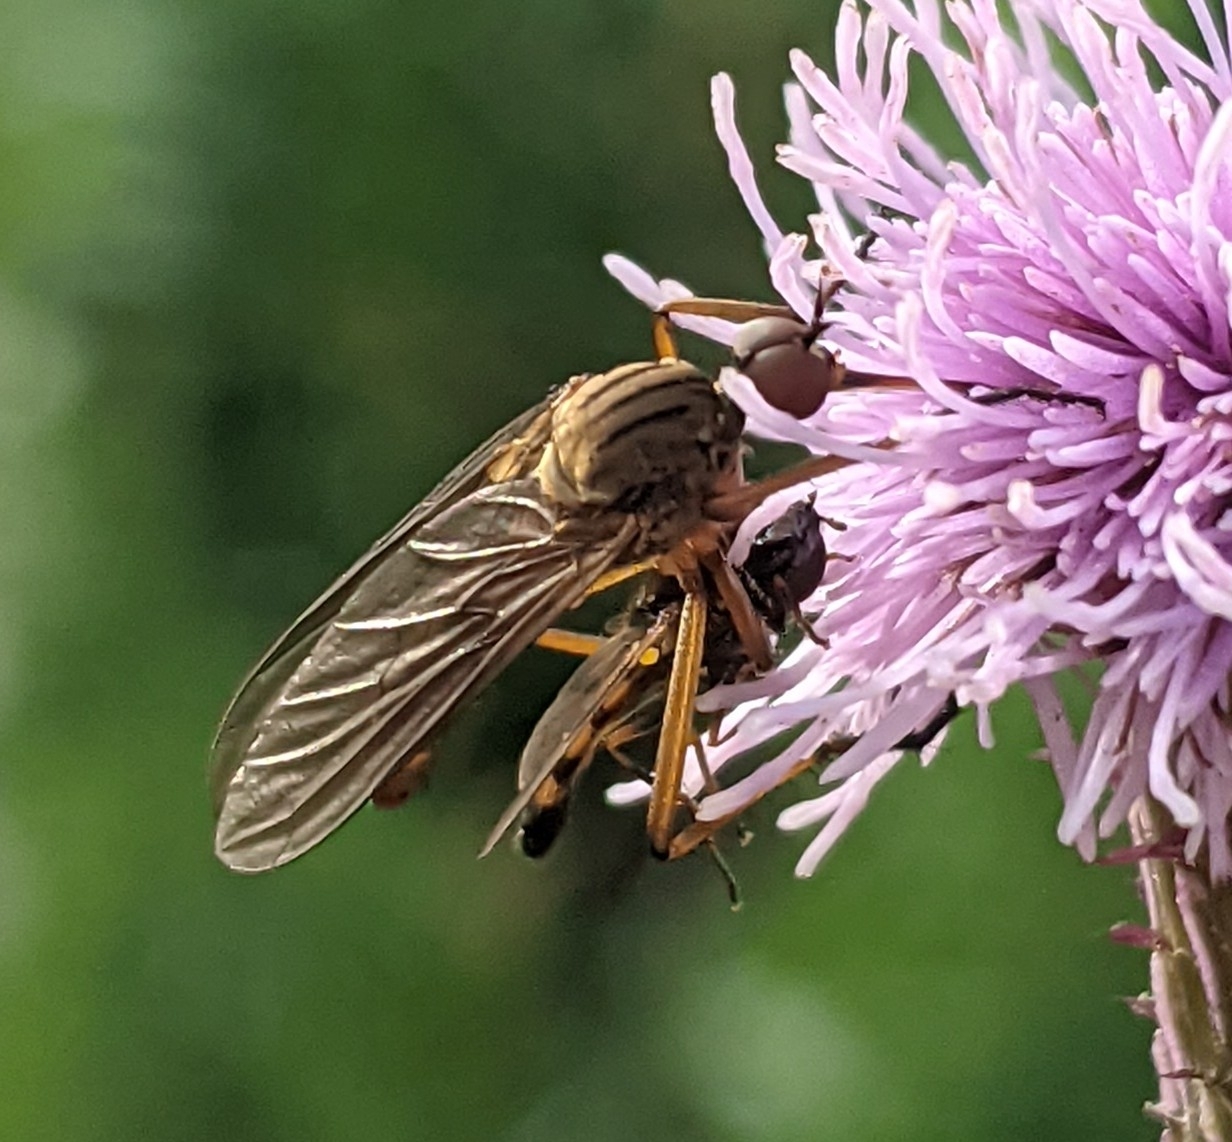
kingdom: Animalia
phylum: Arthropoda
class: Insecta
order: Diptera
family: Empididae
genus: Empis
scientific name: Empis livida
